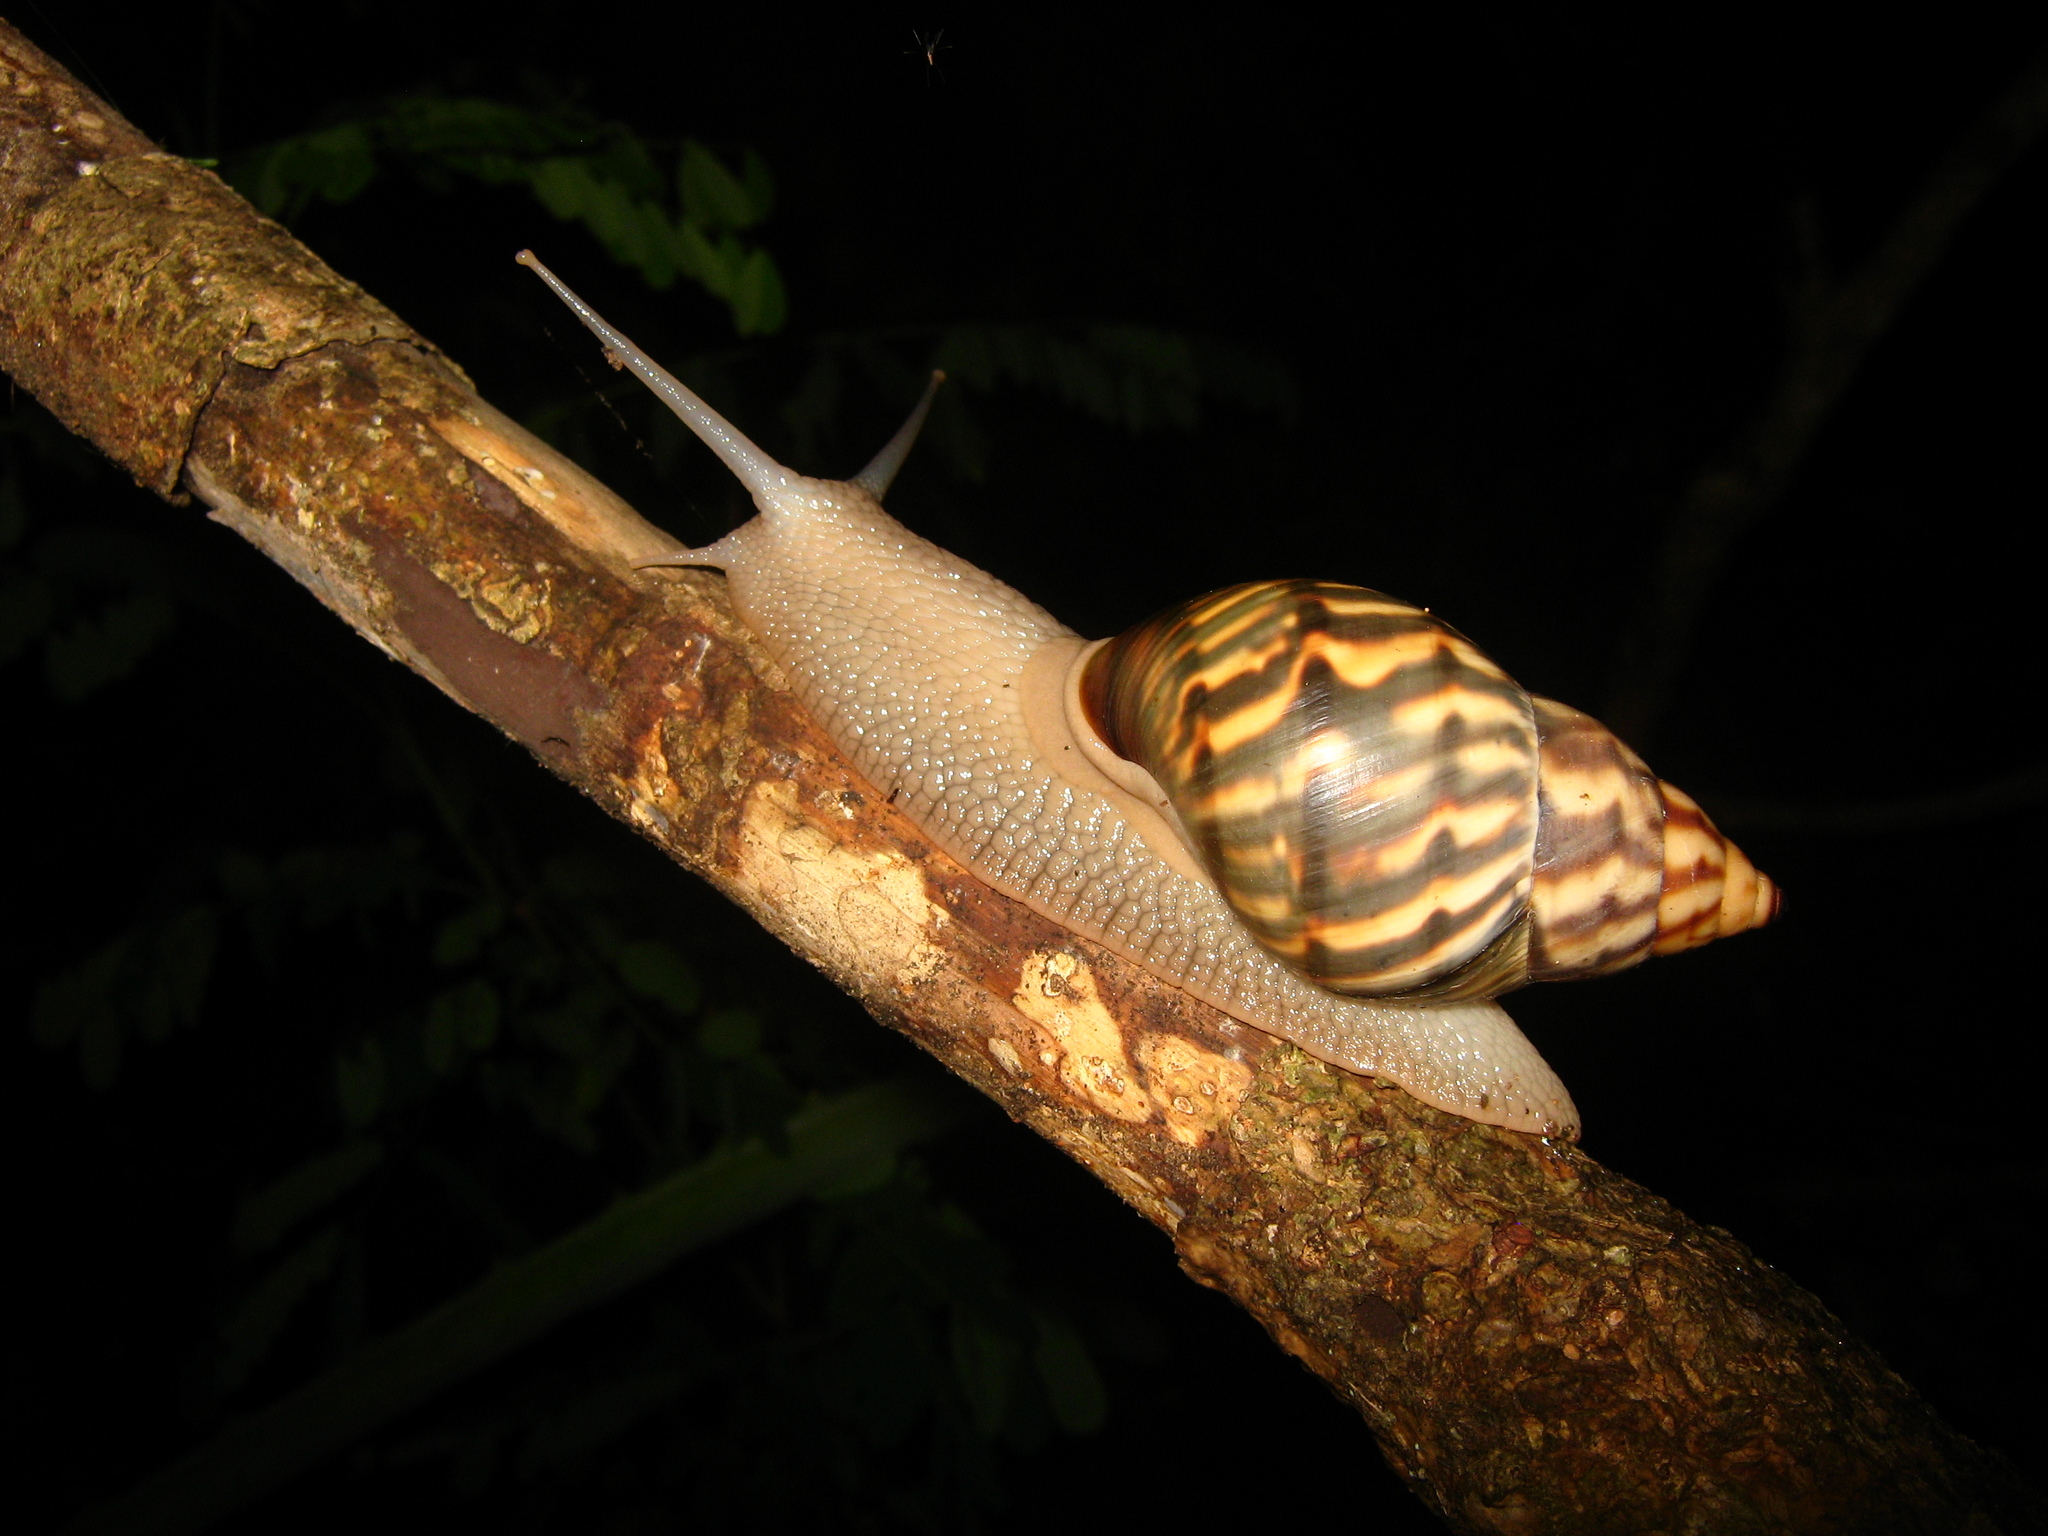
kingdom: Animalia
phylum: Mollusca
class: Gastropoda
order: Stylommatophora
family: Orthalicidae
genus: Orthalicus
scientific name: Orthalicus
